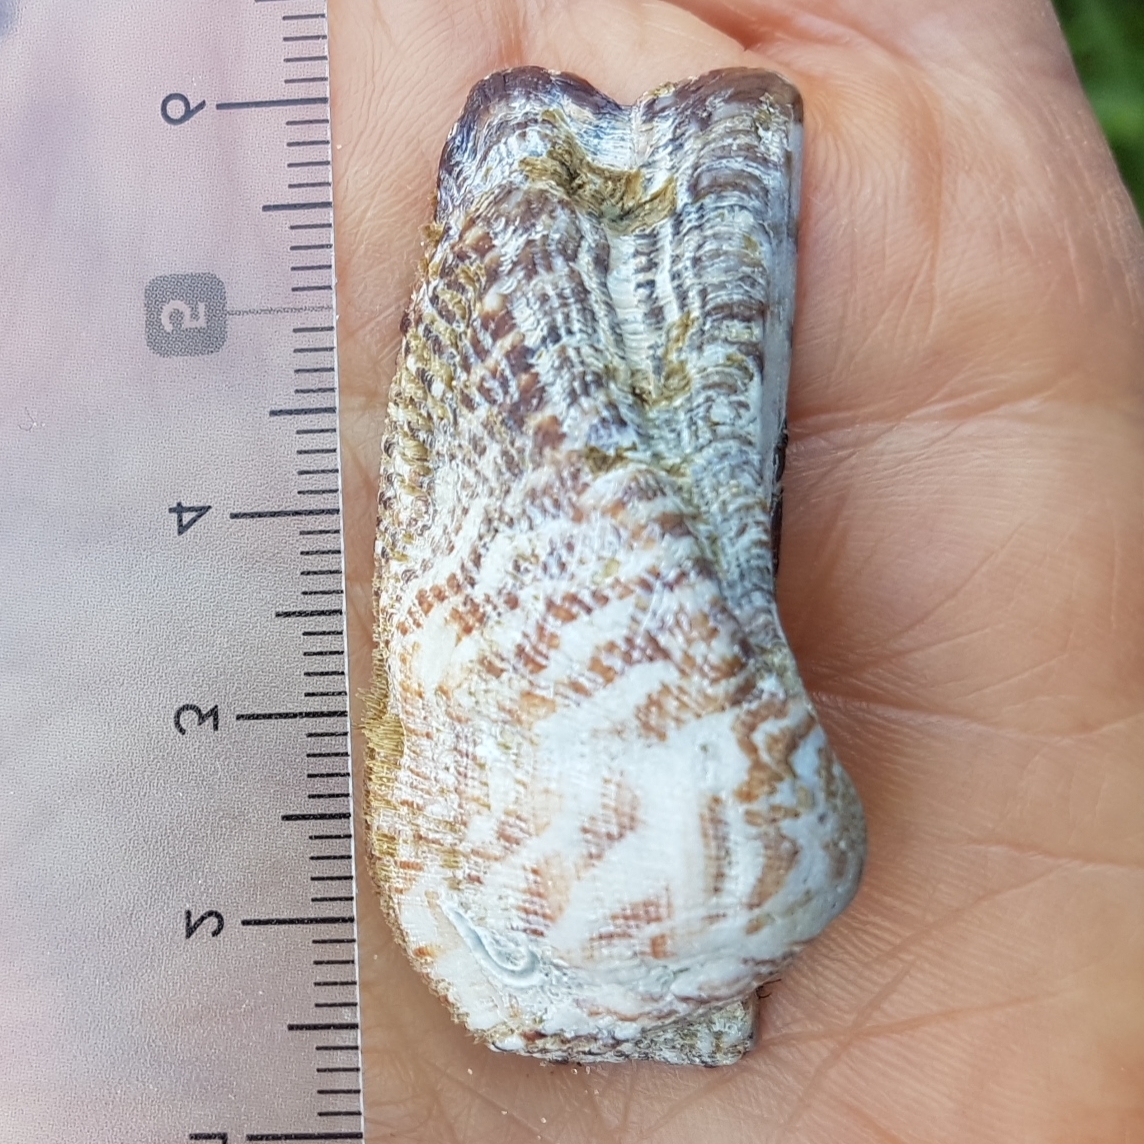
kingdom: Animalia
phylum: Mollusca
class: Bivalvia
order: Arcida
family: Arcidae
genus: Arca
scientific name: Arca noae
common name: Noah's arch
